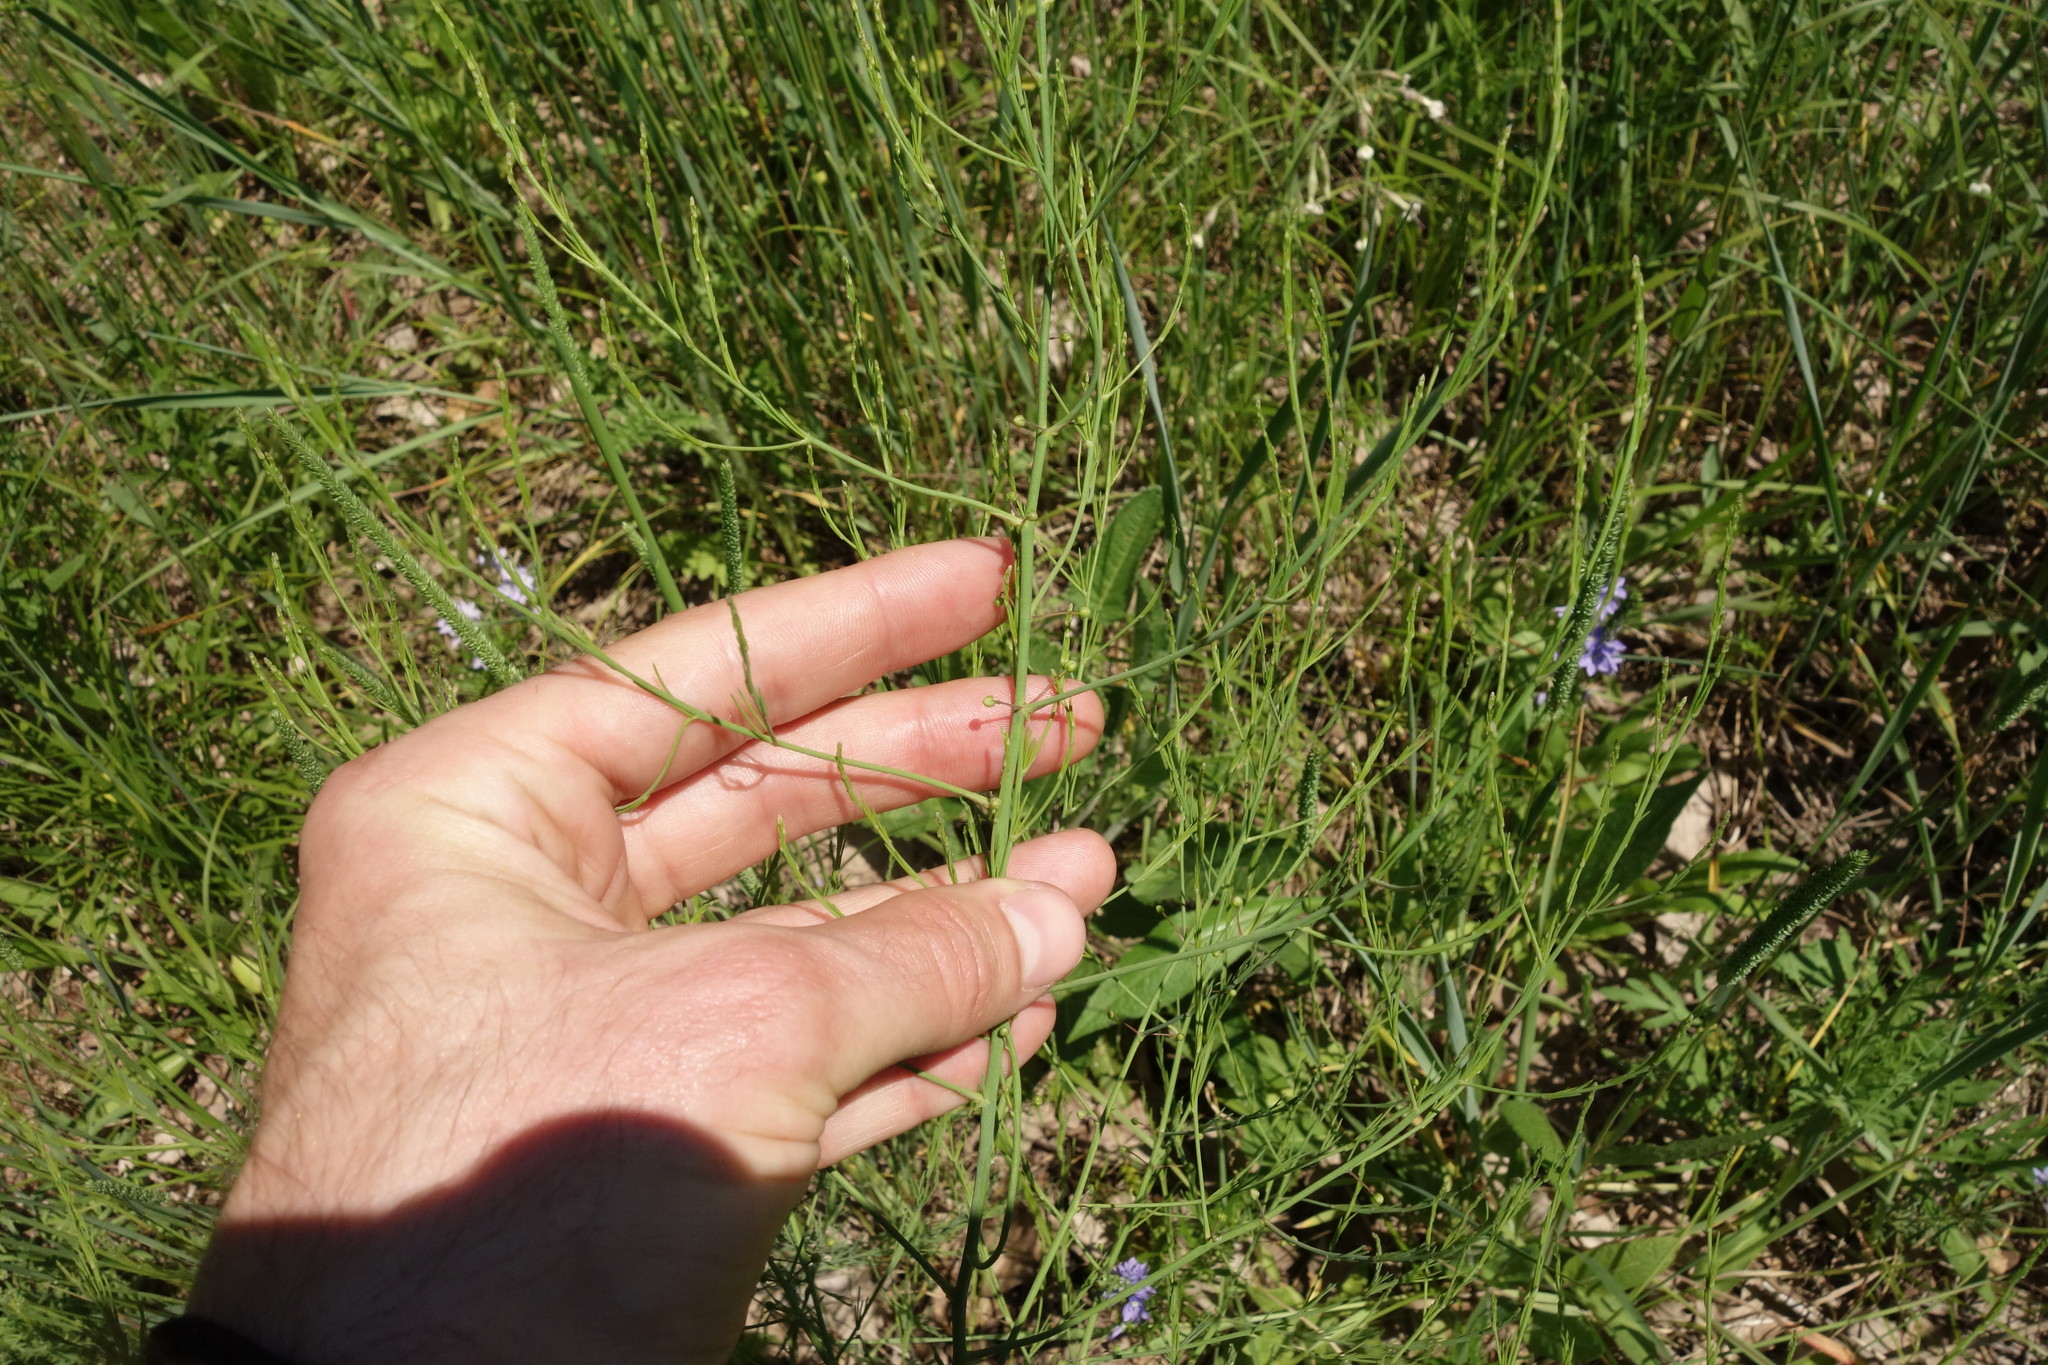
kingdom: Plantae
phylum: Tracheophyta
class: Liliopsida
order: Asparagales
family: Asparagaceae
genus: Asparagus
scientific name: Asparagus officinalis
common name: Garden asparagus
